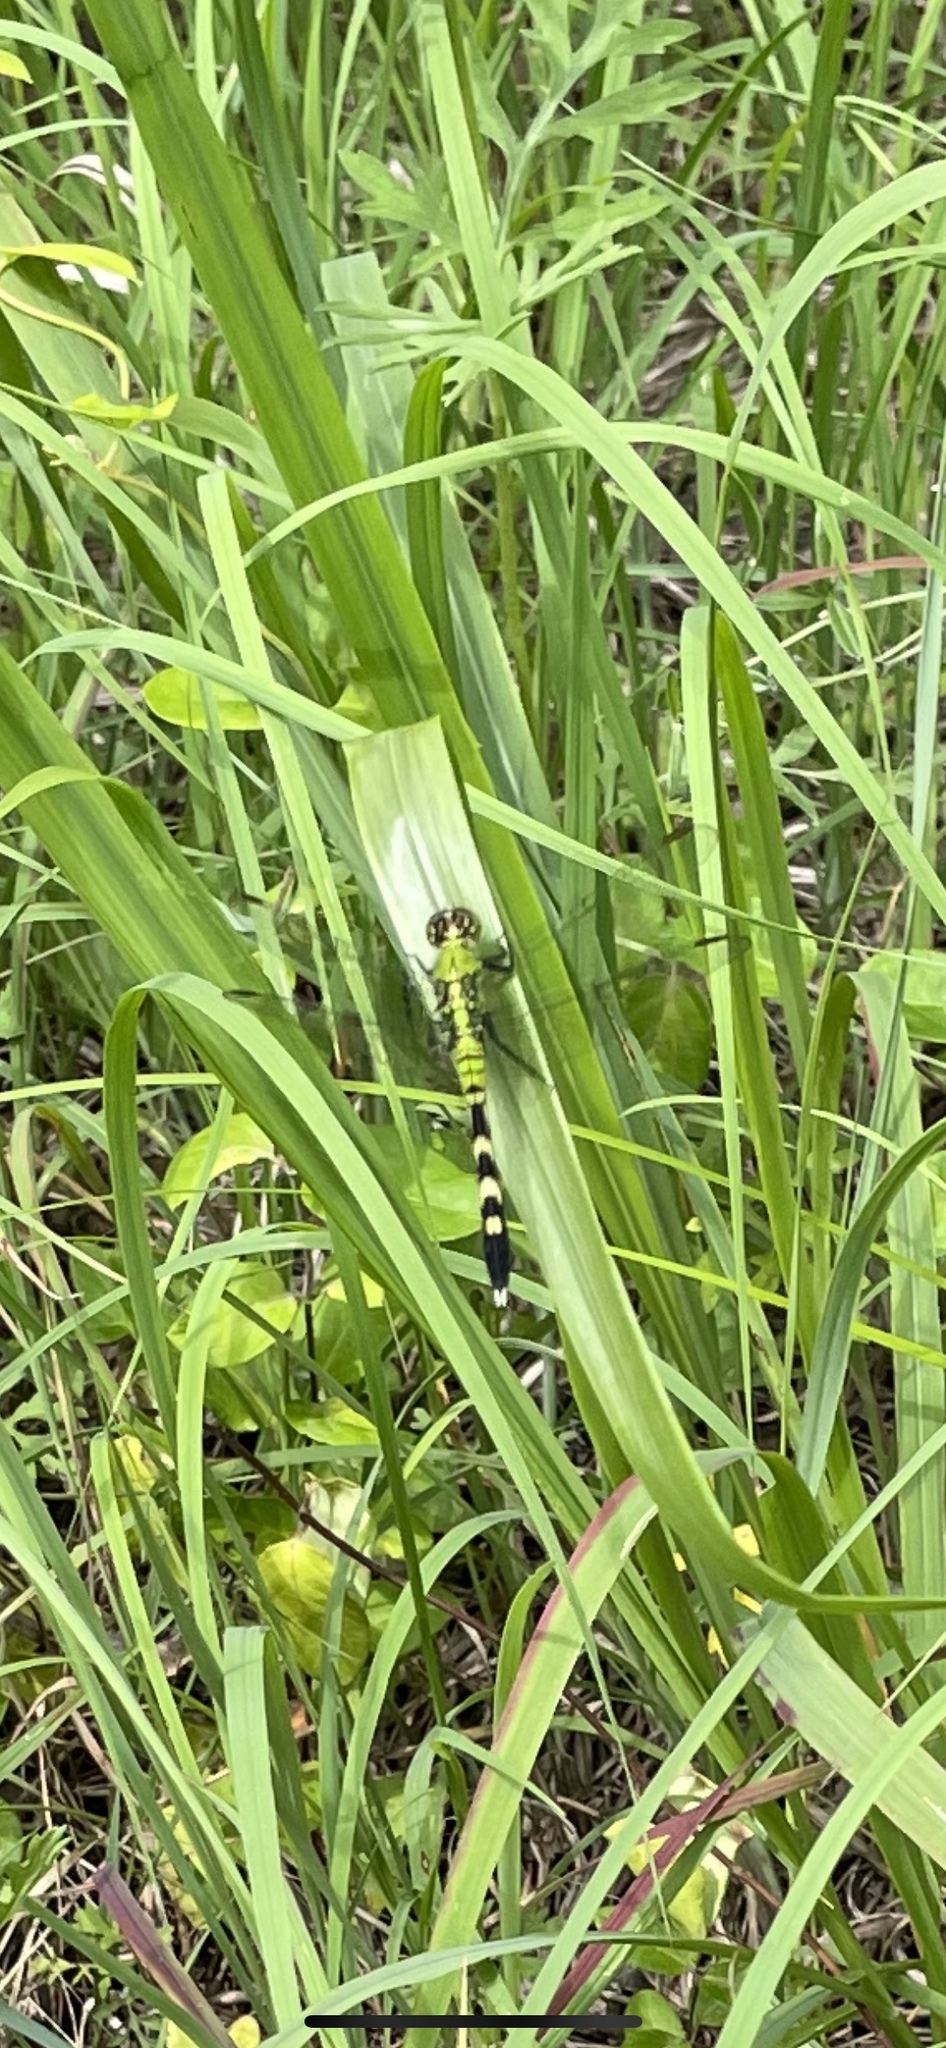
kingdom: Animalia
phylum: Arthropoda
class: Insecta
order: Odonata
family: Libellulidae
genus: Erythemis
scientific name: Erythemis simplicicollis
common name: Eastern pondhawk
